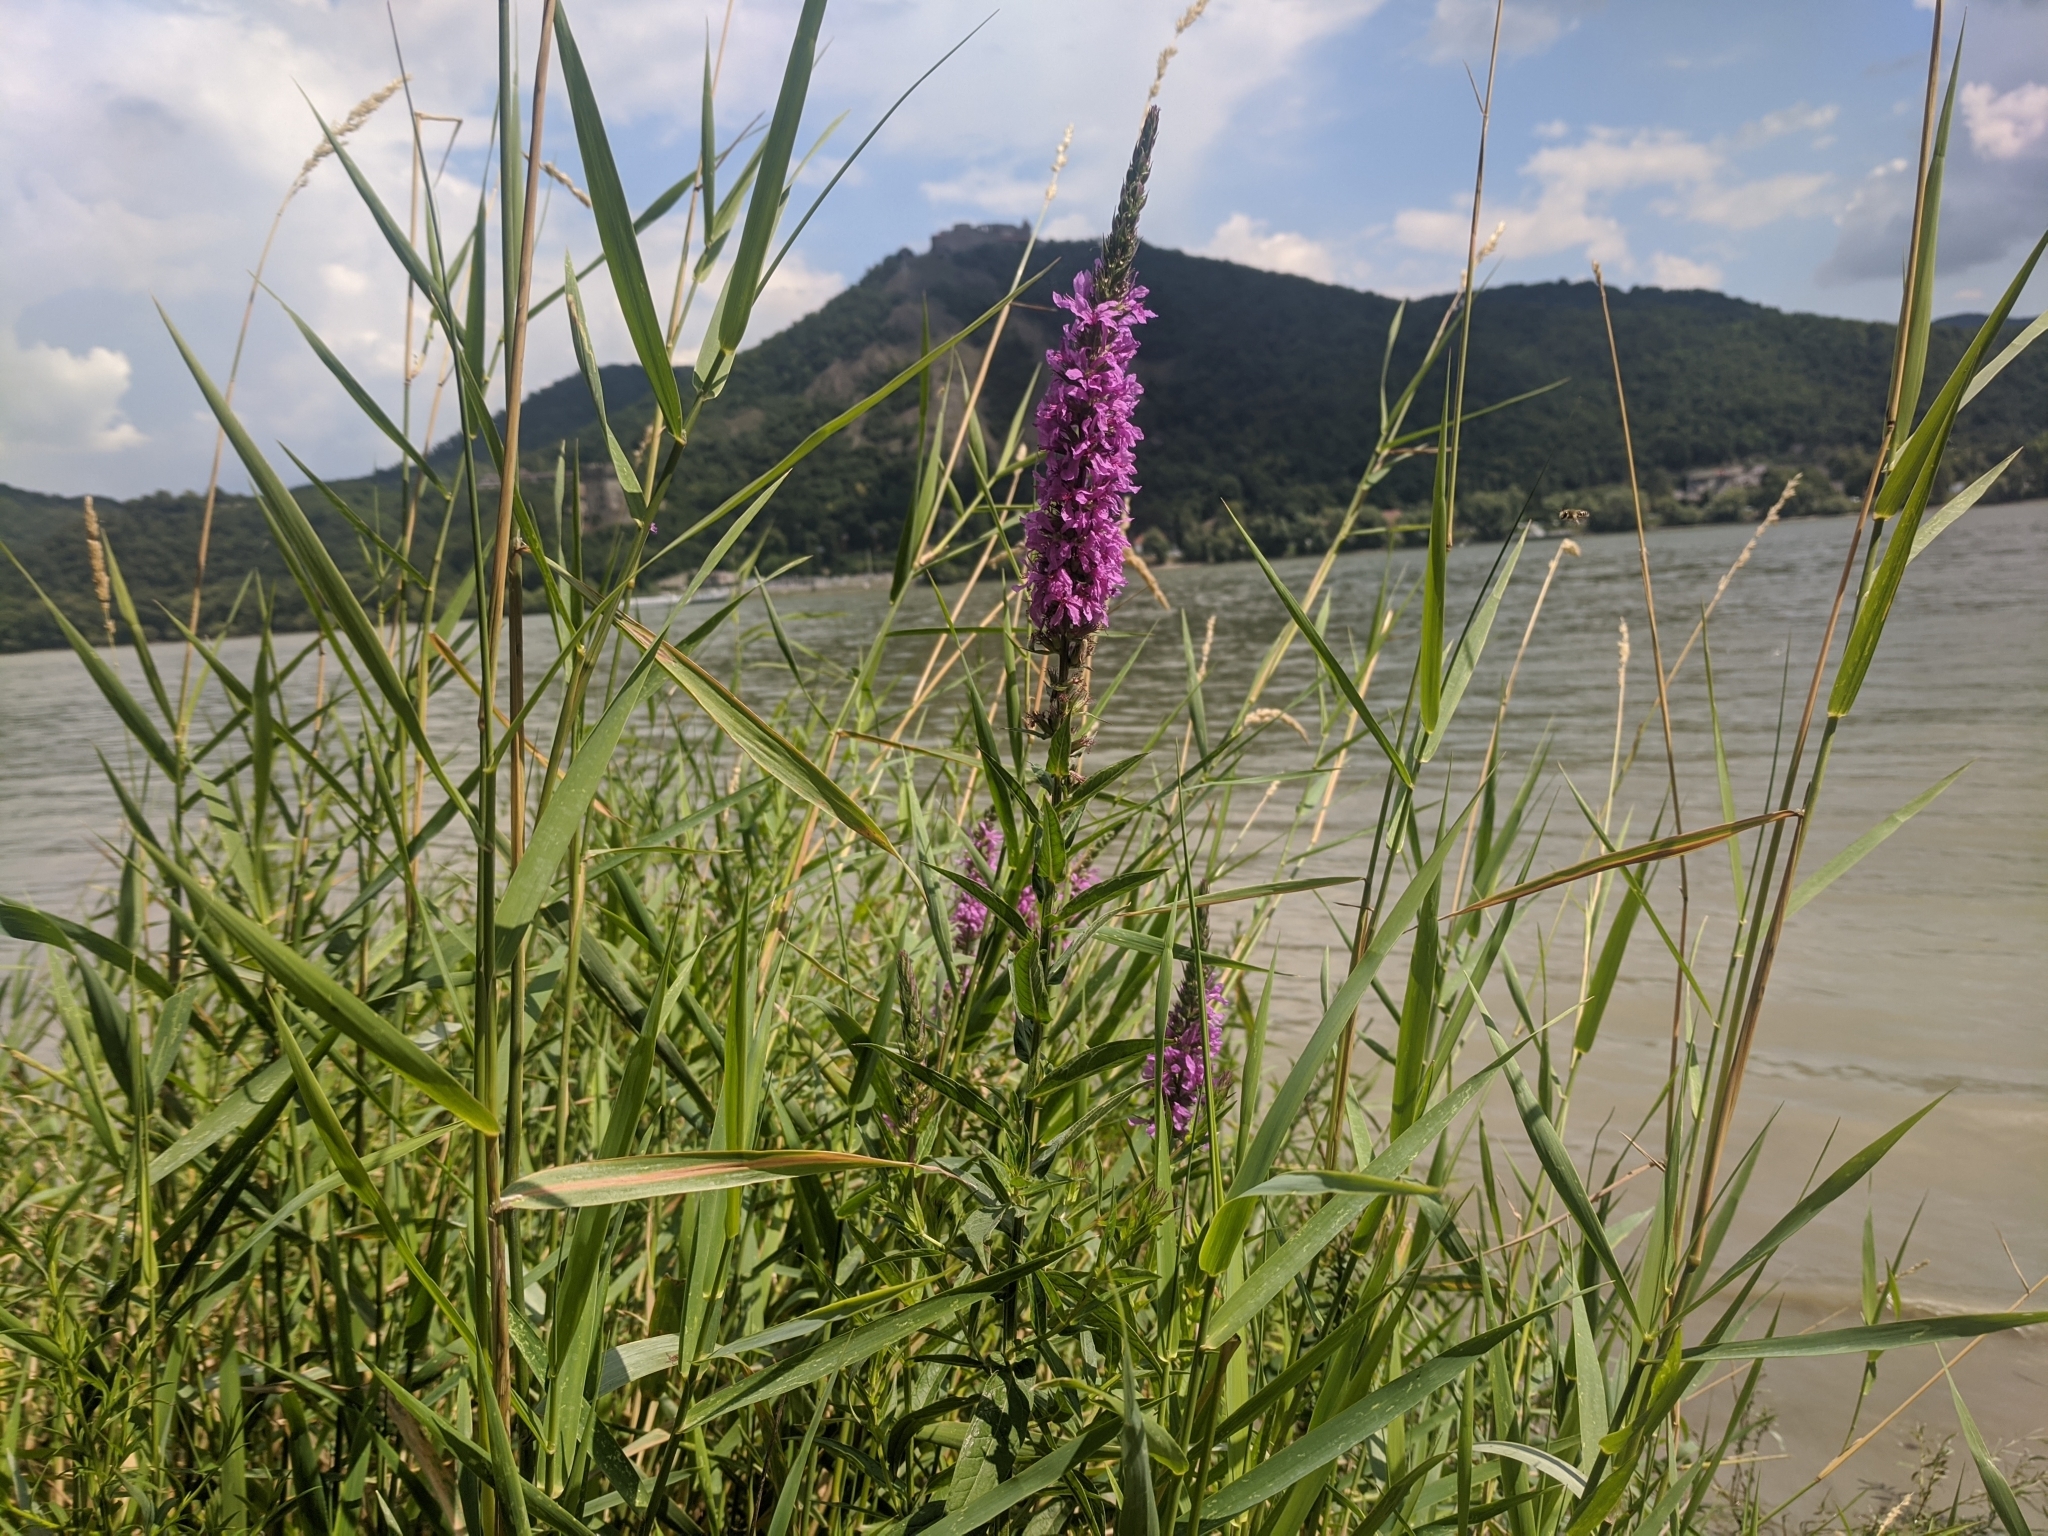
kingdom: Plantae
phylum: Tracheophyta
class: Magnoliopsida
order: Myrtales
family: Lythraceae
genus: Lythrum
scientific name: Lythrum salicaria
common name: Purple loosestrife
